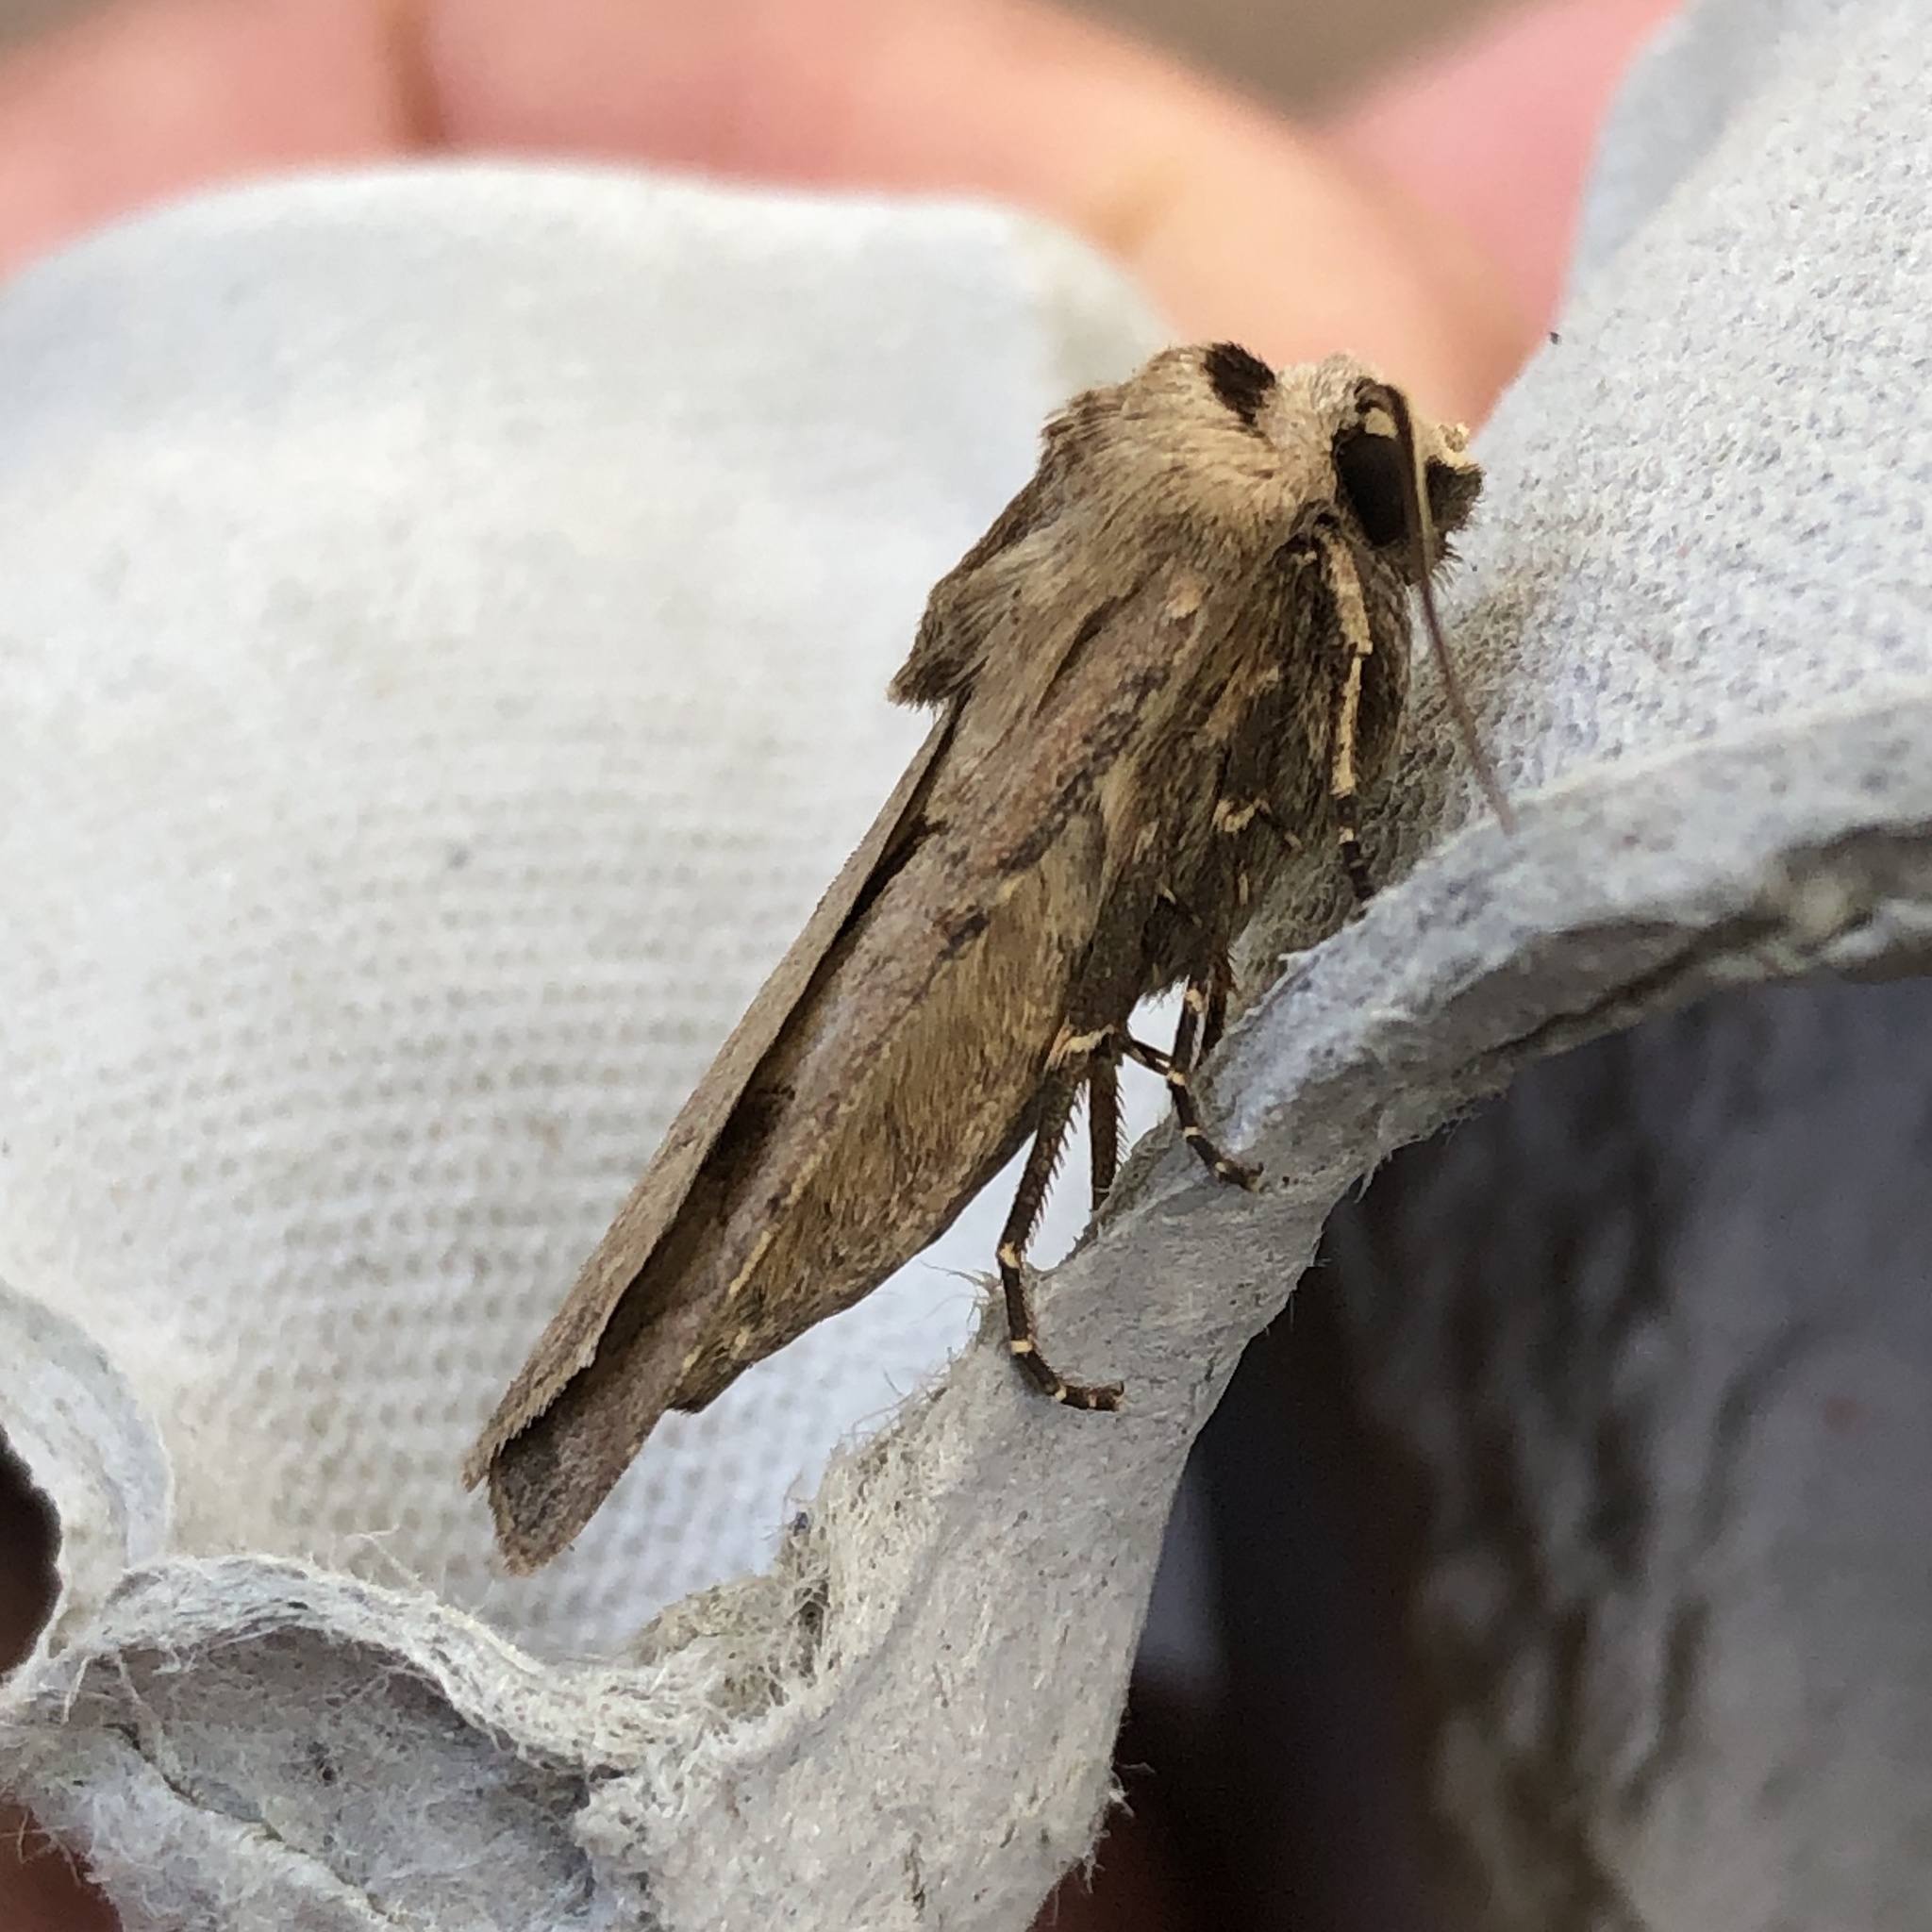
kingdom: Animalia
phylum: Arthropoda
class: Insecta
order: Lepidoptera
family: Noctuidae
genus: Agrotis
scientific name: Agrotis exclamationis
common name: Heart and dart
